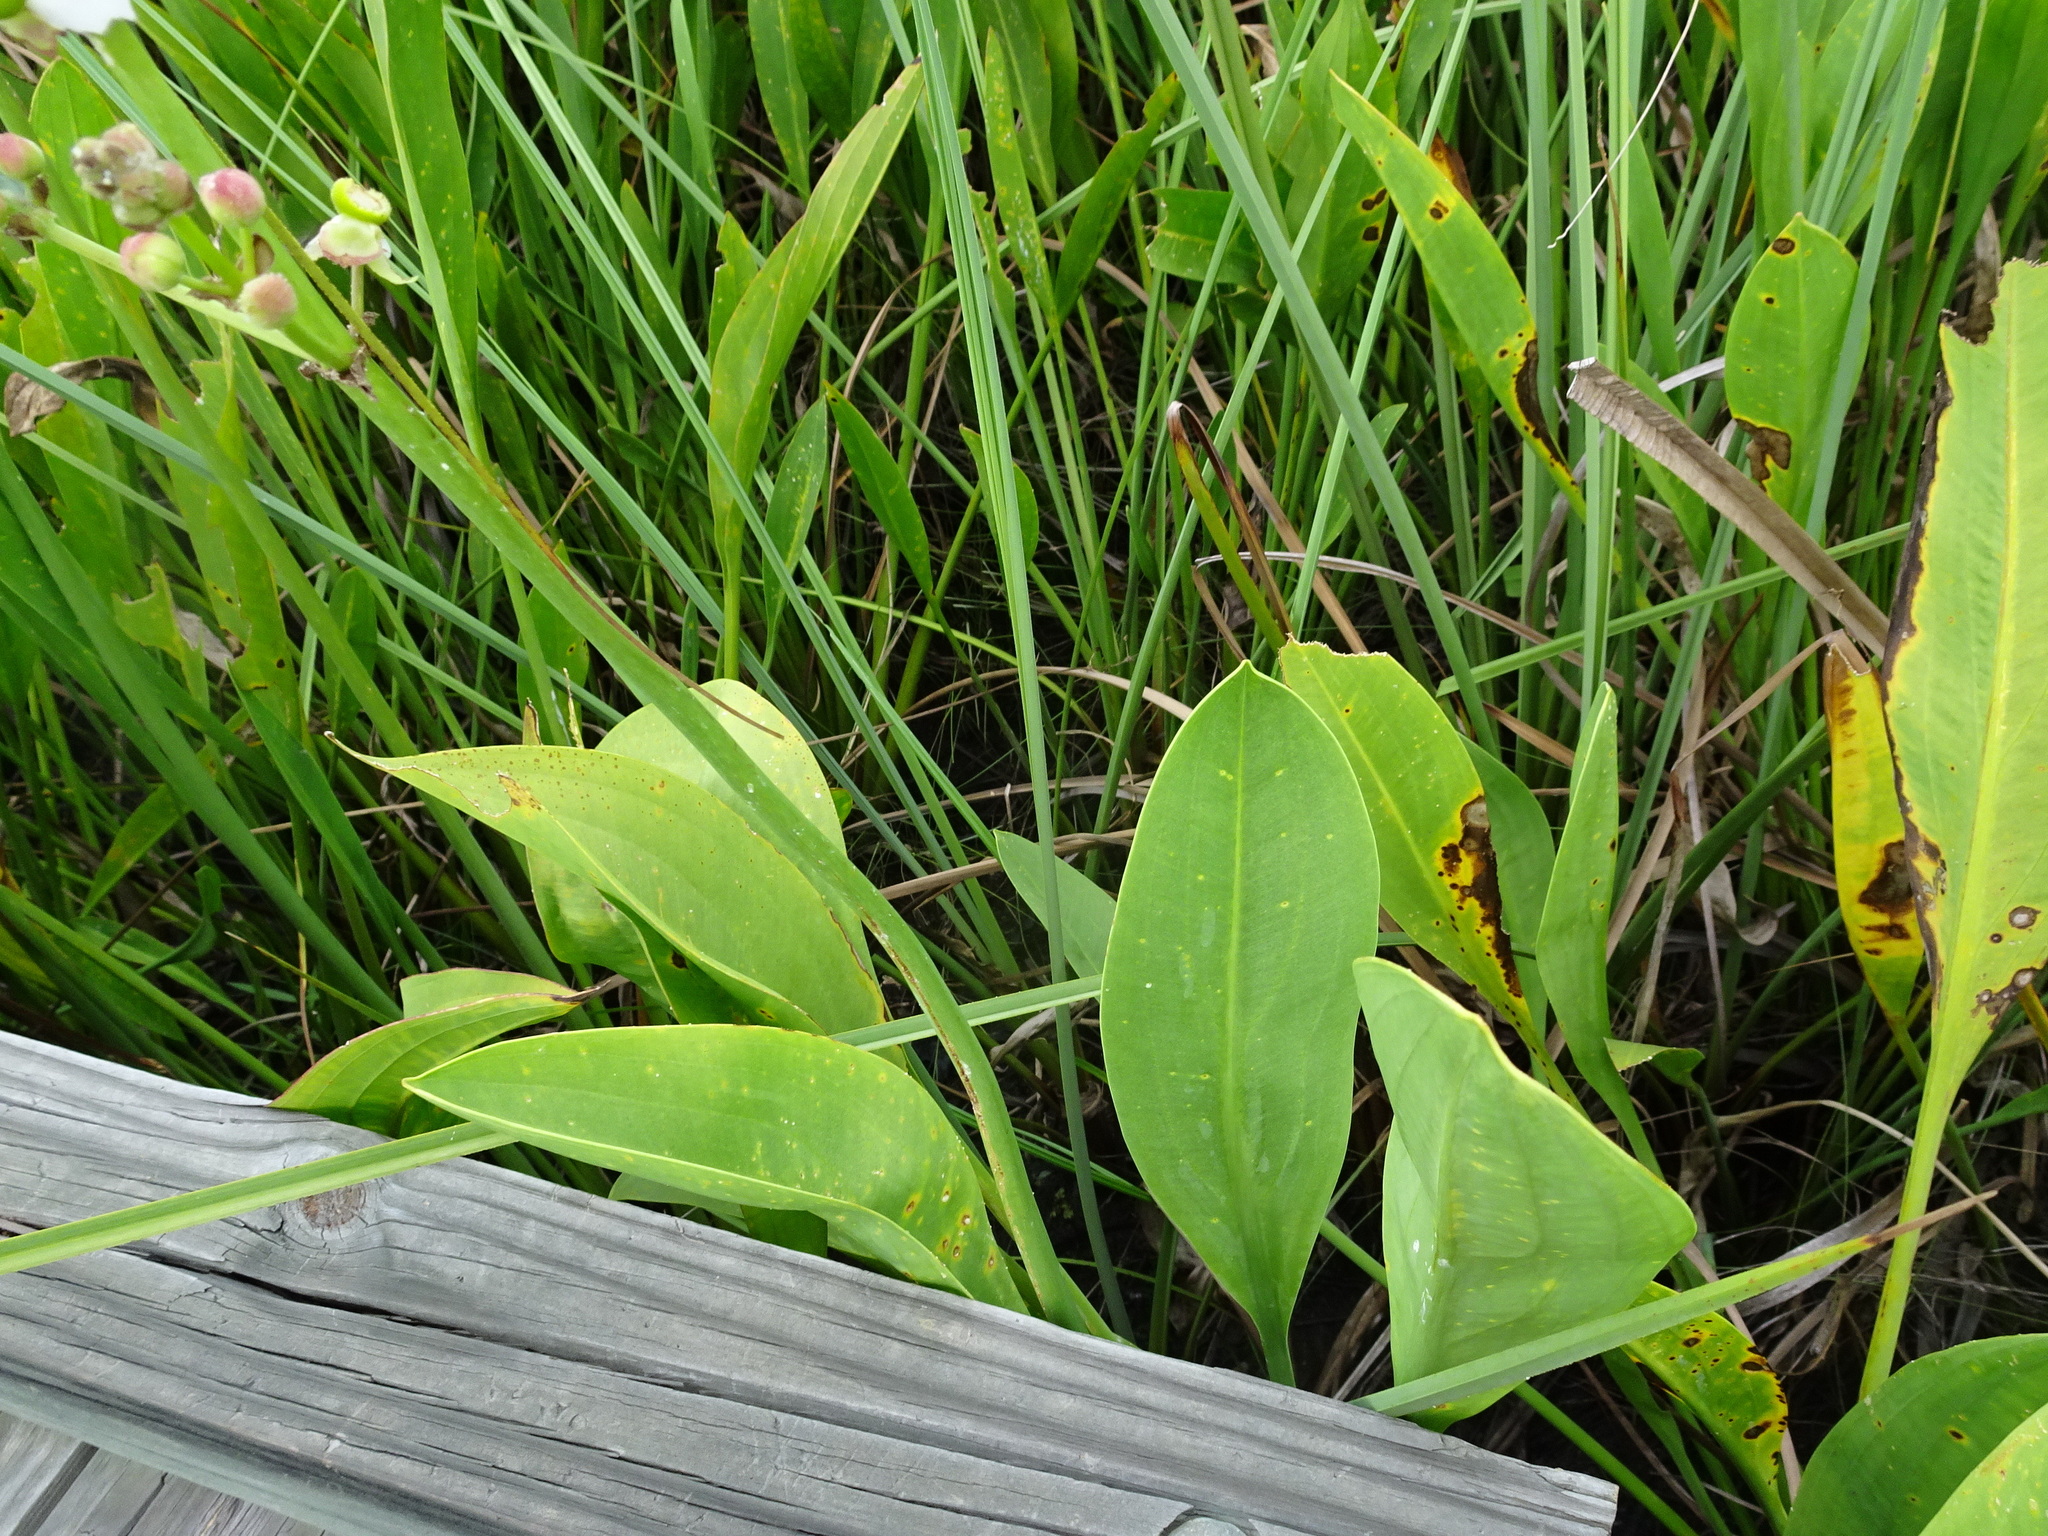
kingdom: Plantae
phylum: Tracheophyta
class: Liliopsida
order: Alismatales
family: Alismataceae
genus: Sagittaria
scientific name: Sagittaria lancifolia
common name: Lance-leaf arrowhead
